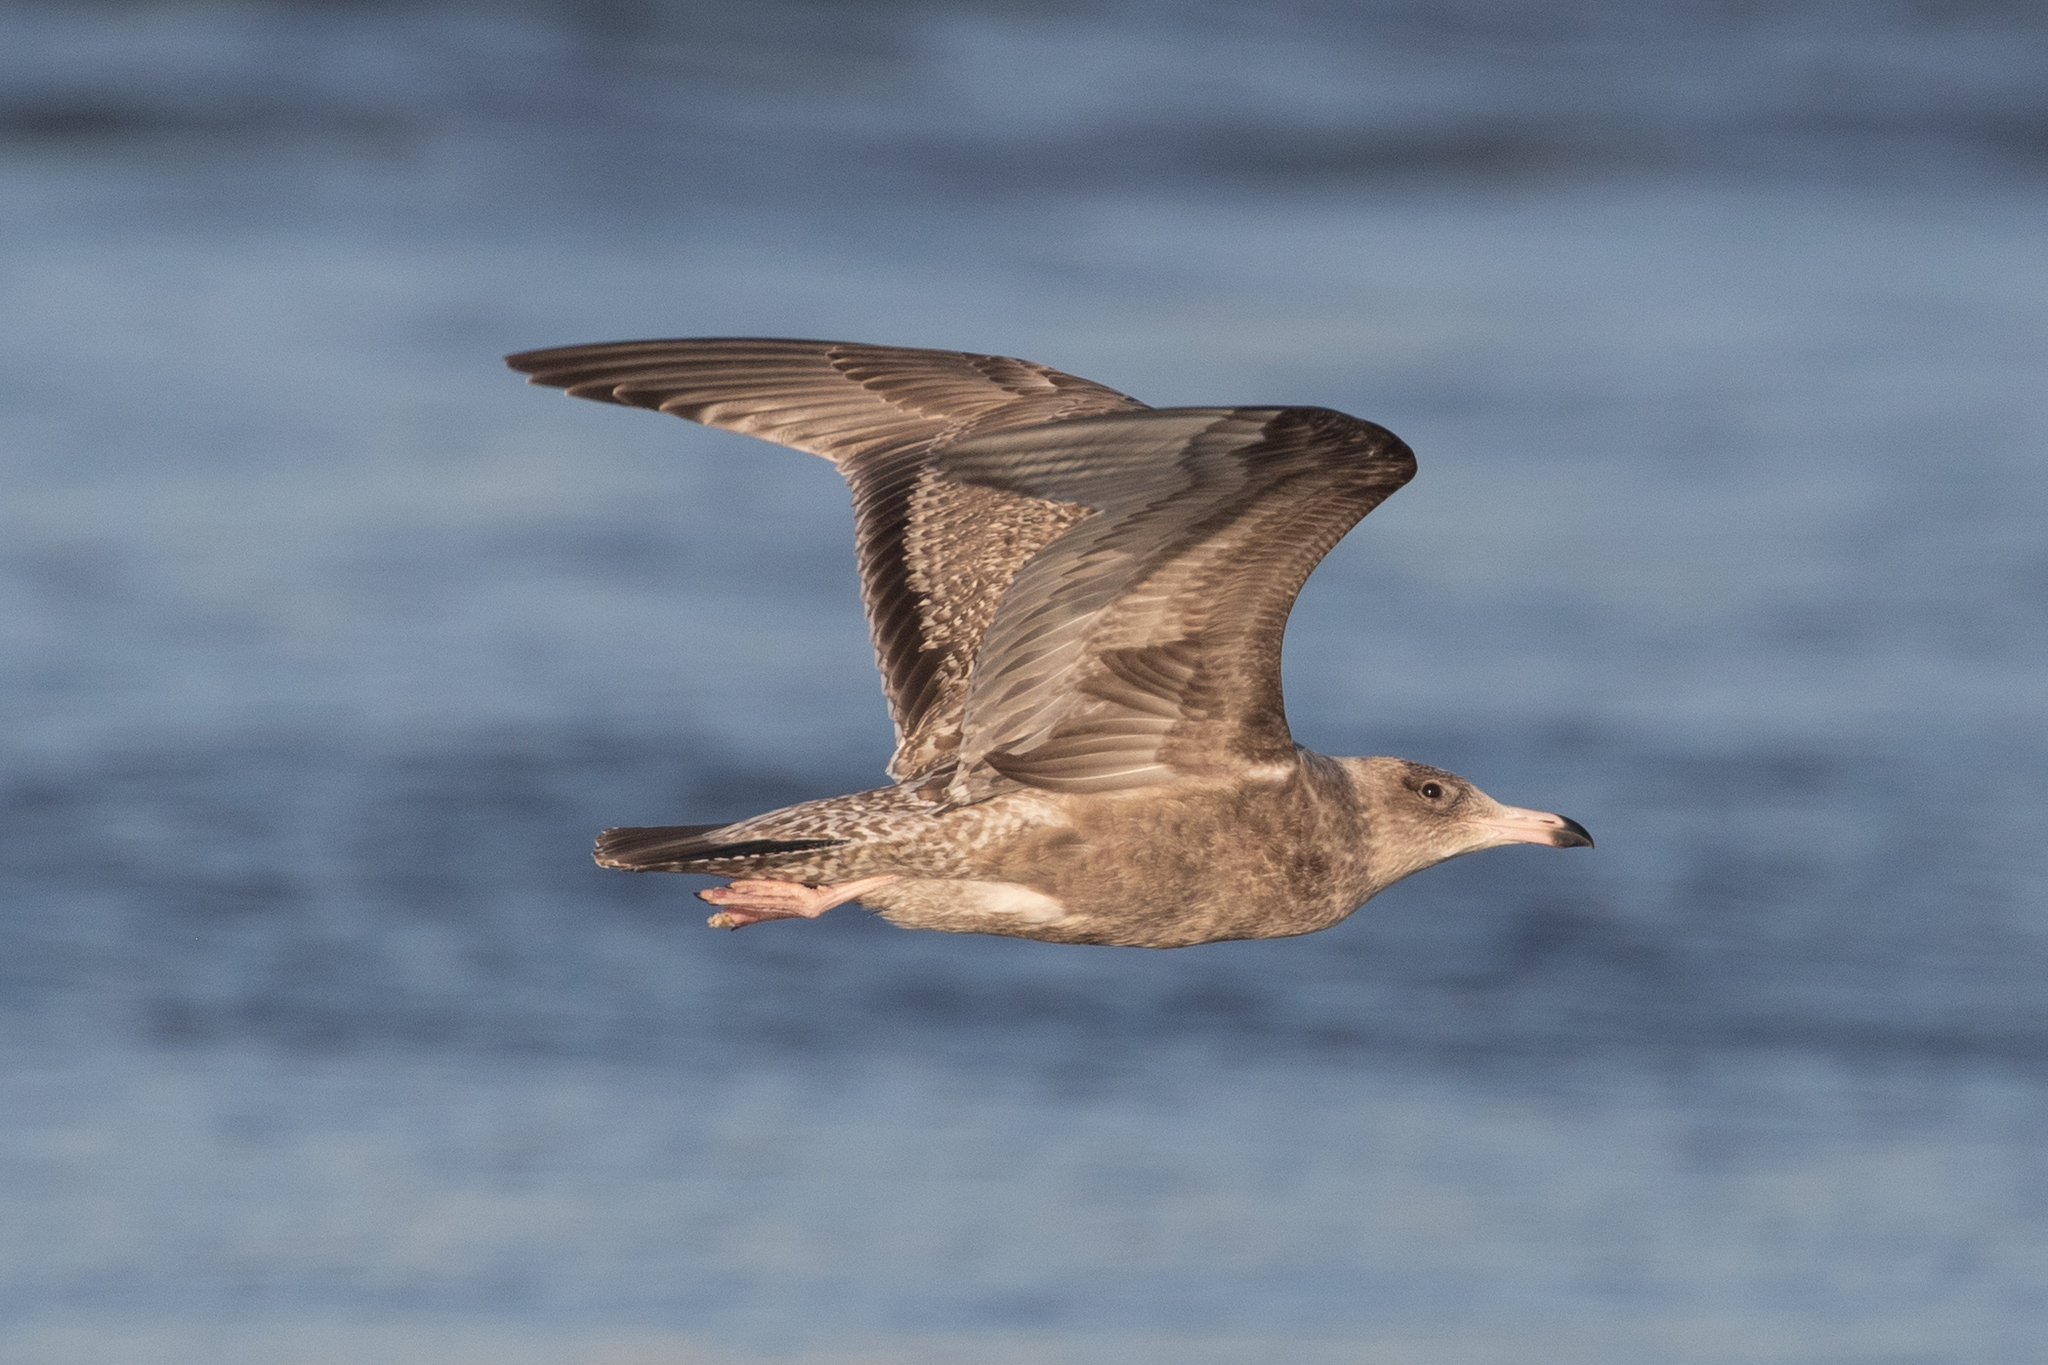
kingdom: Animalia
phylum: Chordata
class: Aves
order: Charadriiformes
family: Laridae
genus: Larus
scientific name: Larus argentatus
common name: Herring gull
